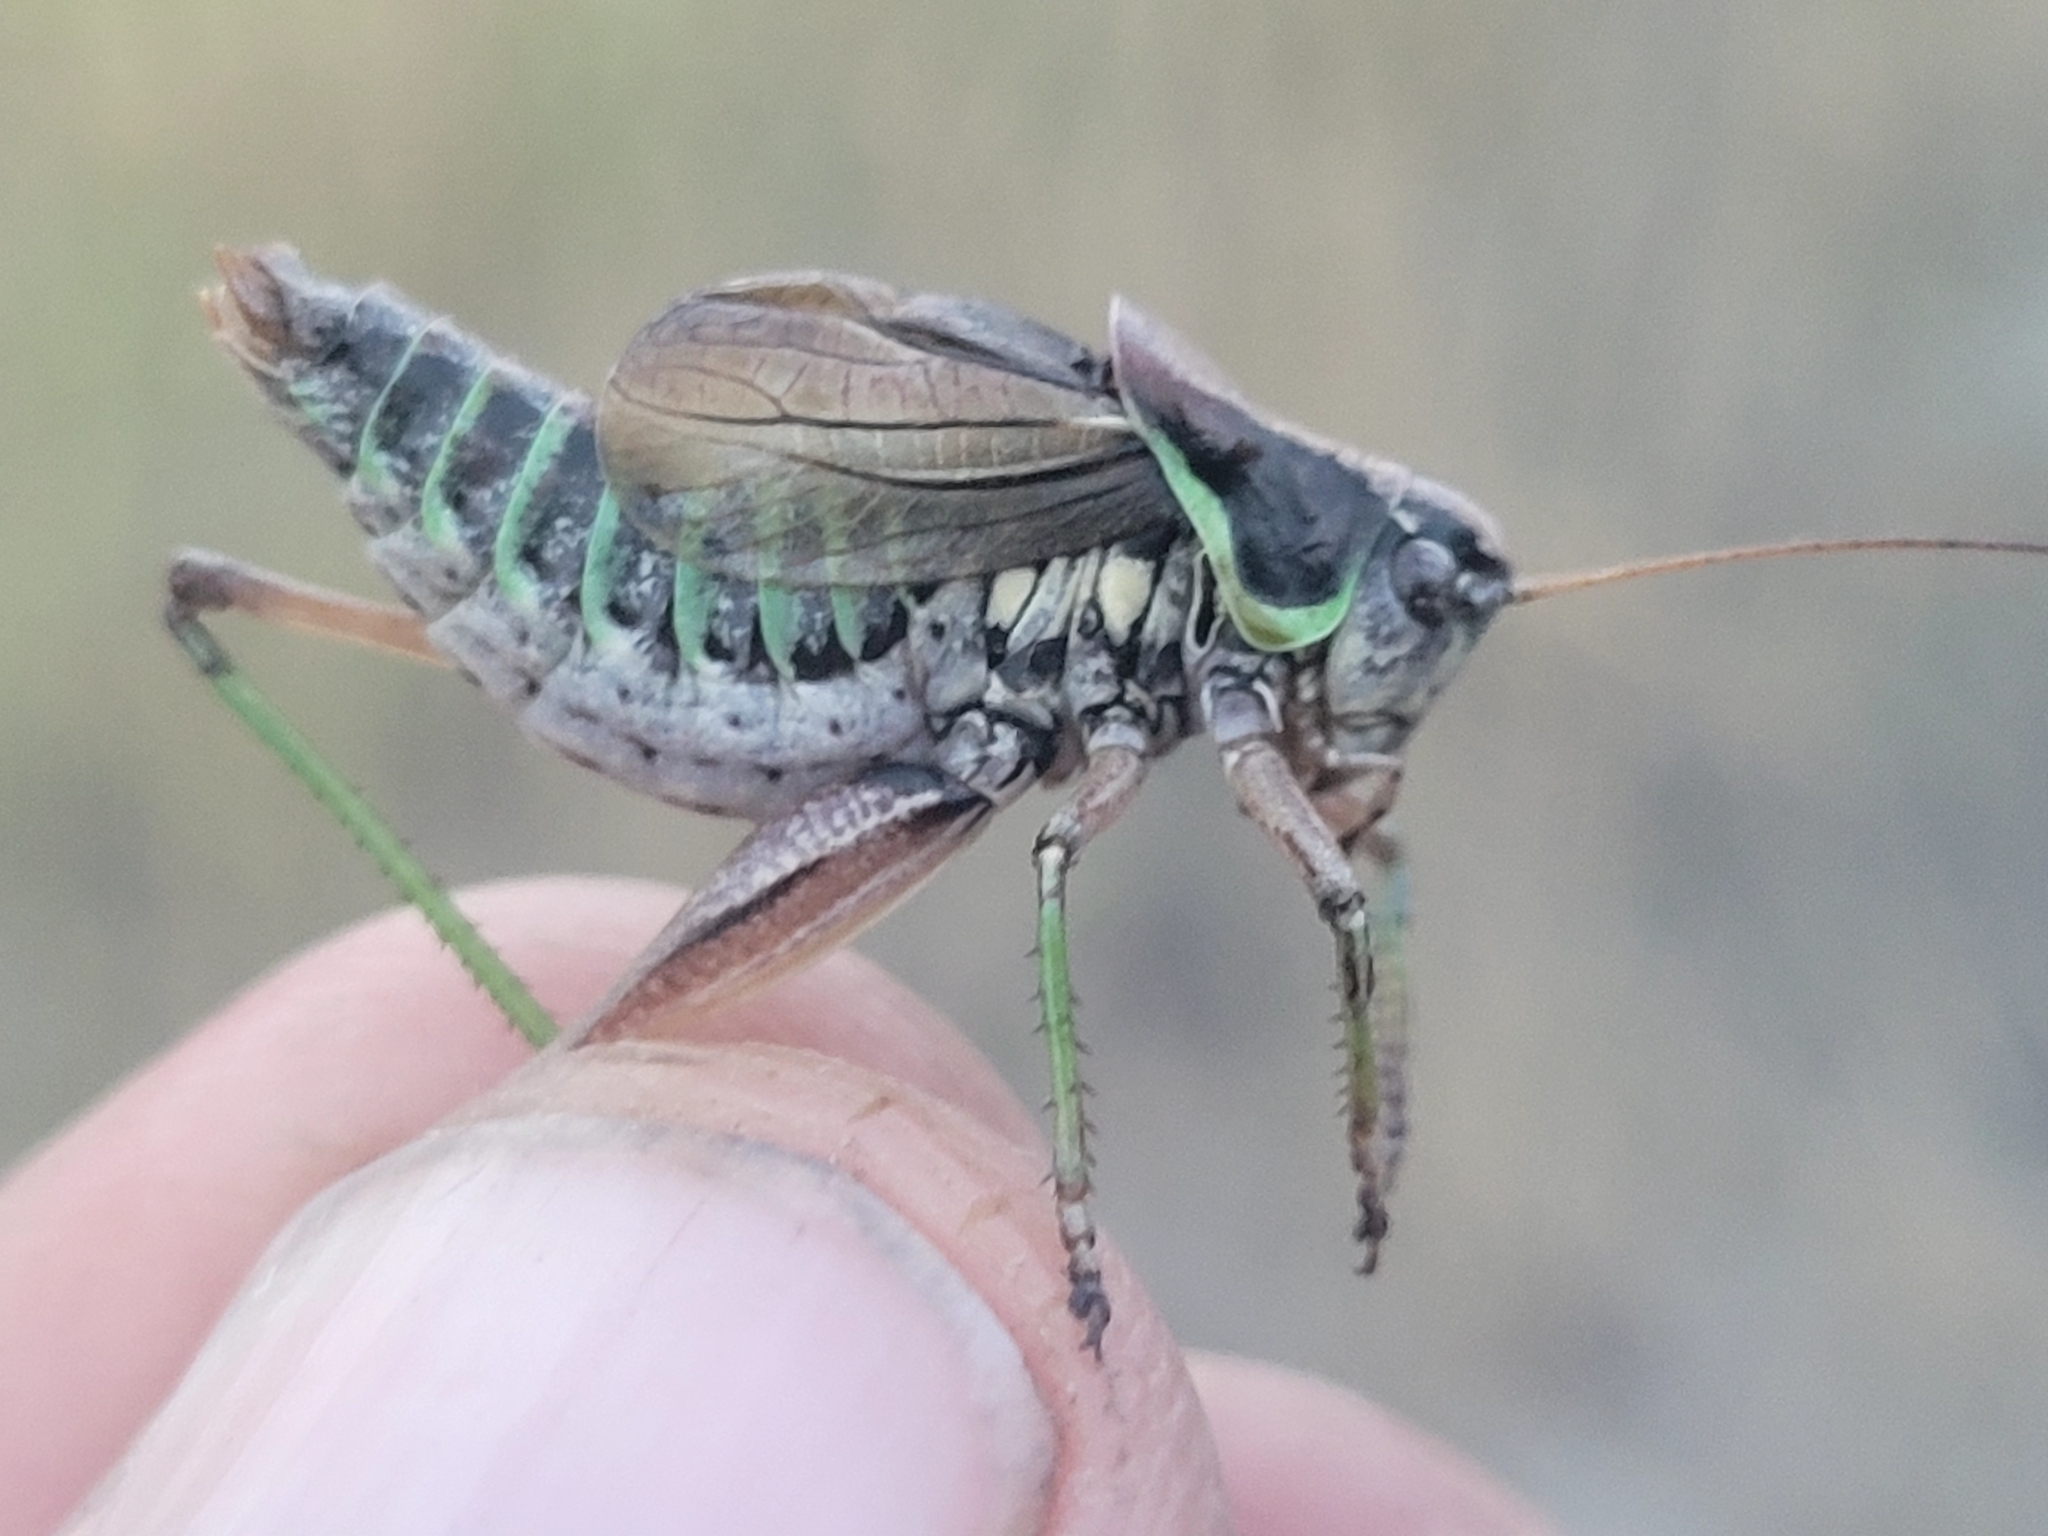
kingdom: Animalia
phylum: Arthropoda
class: Insecta
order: Orthoptera
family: Tettigoniidae
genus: Sphagniana
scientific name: Sphagniana sphagnorum
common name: Bog katydid
